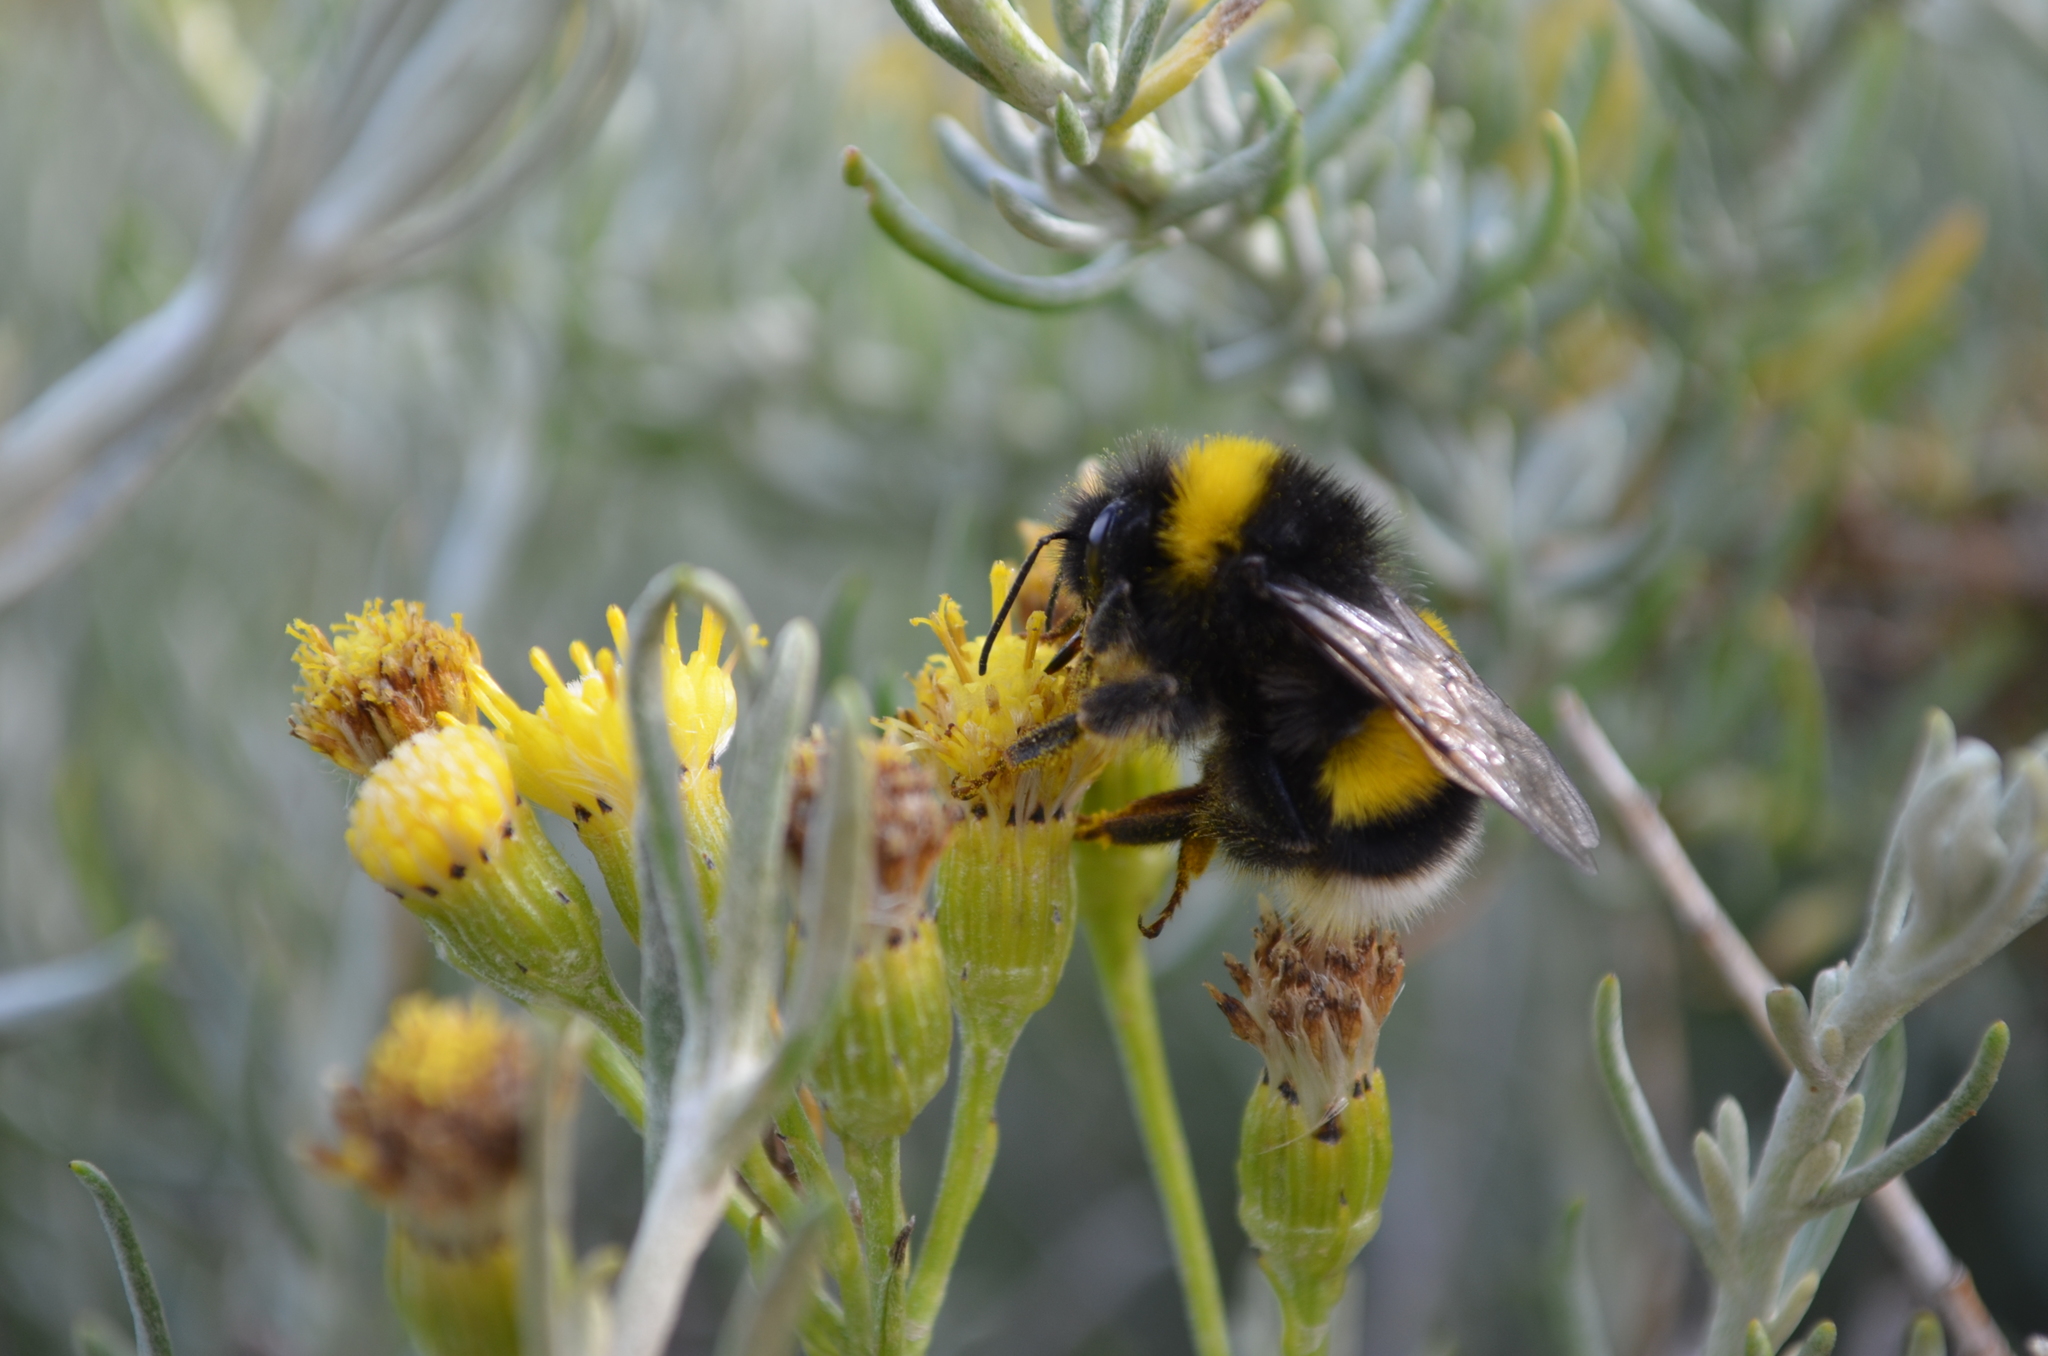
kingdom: Animalia
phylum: Arthropoda
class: Insecta
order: Hymenoptera
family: Apidae
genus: Bombus
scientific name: Bombus terrestris
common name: Buff-tailed bumblebee
